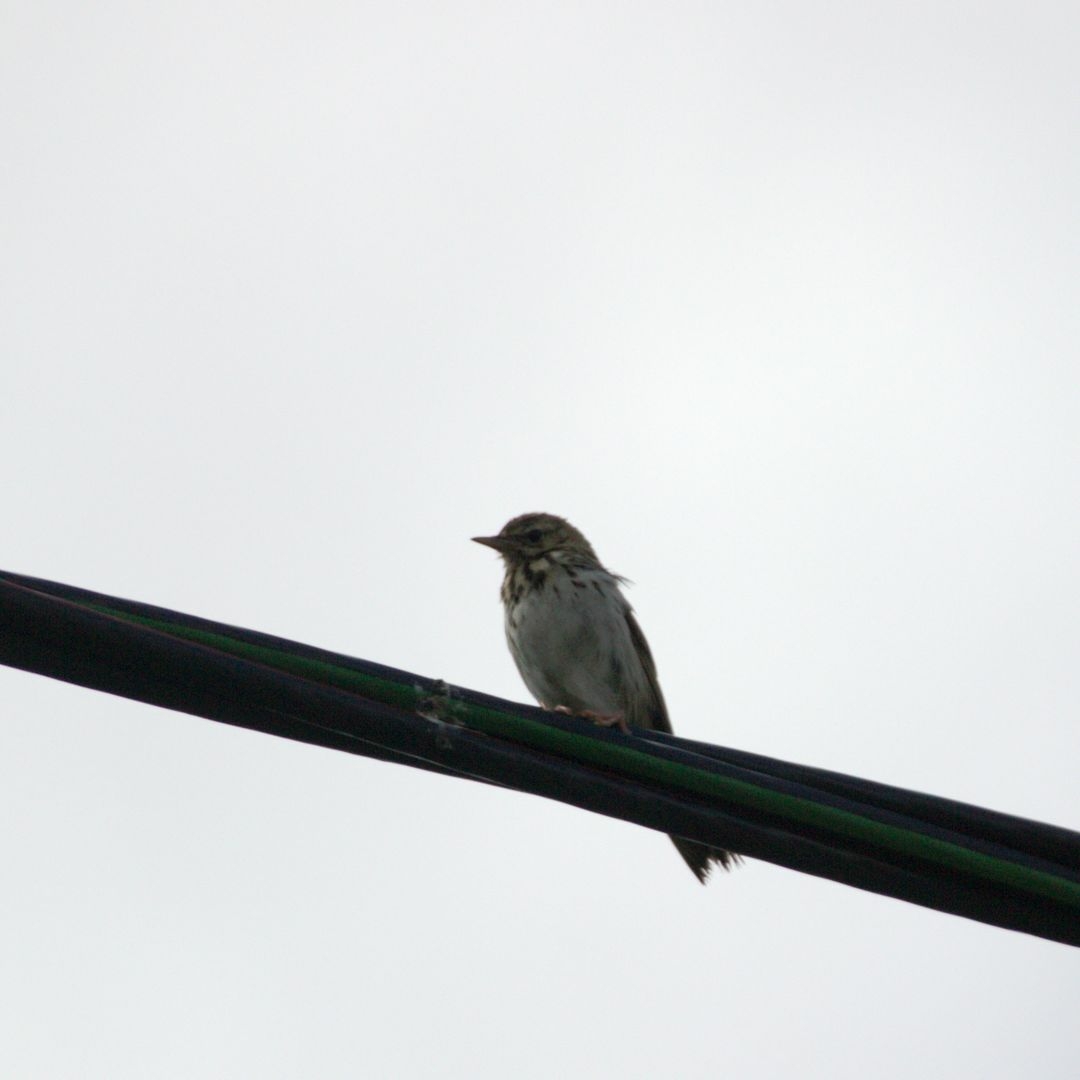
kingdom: Animalia
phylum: Chordata
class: Aves
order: Passeriformes
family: Motacillidae
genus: Anthus
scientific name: Anthus trivialis
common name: Tree pipit
